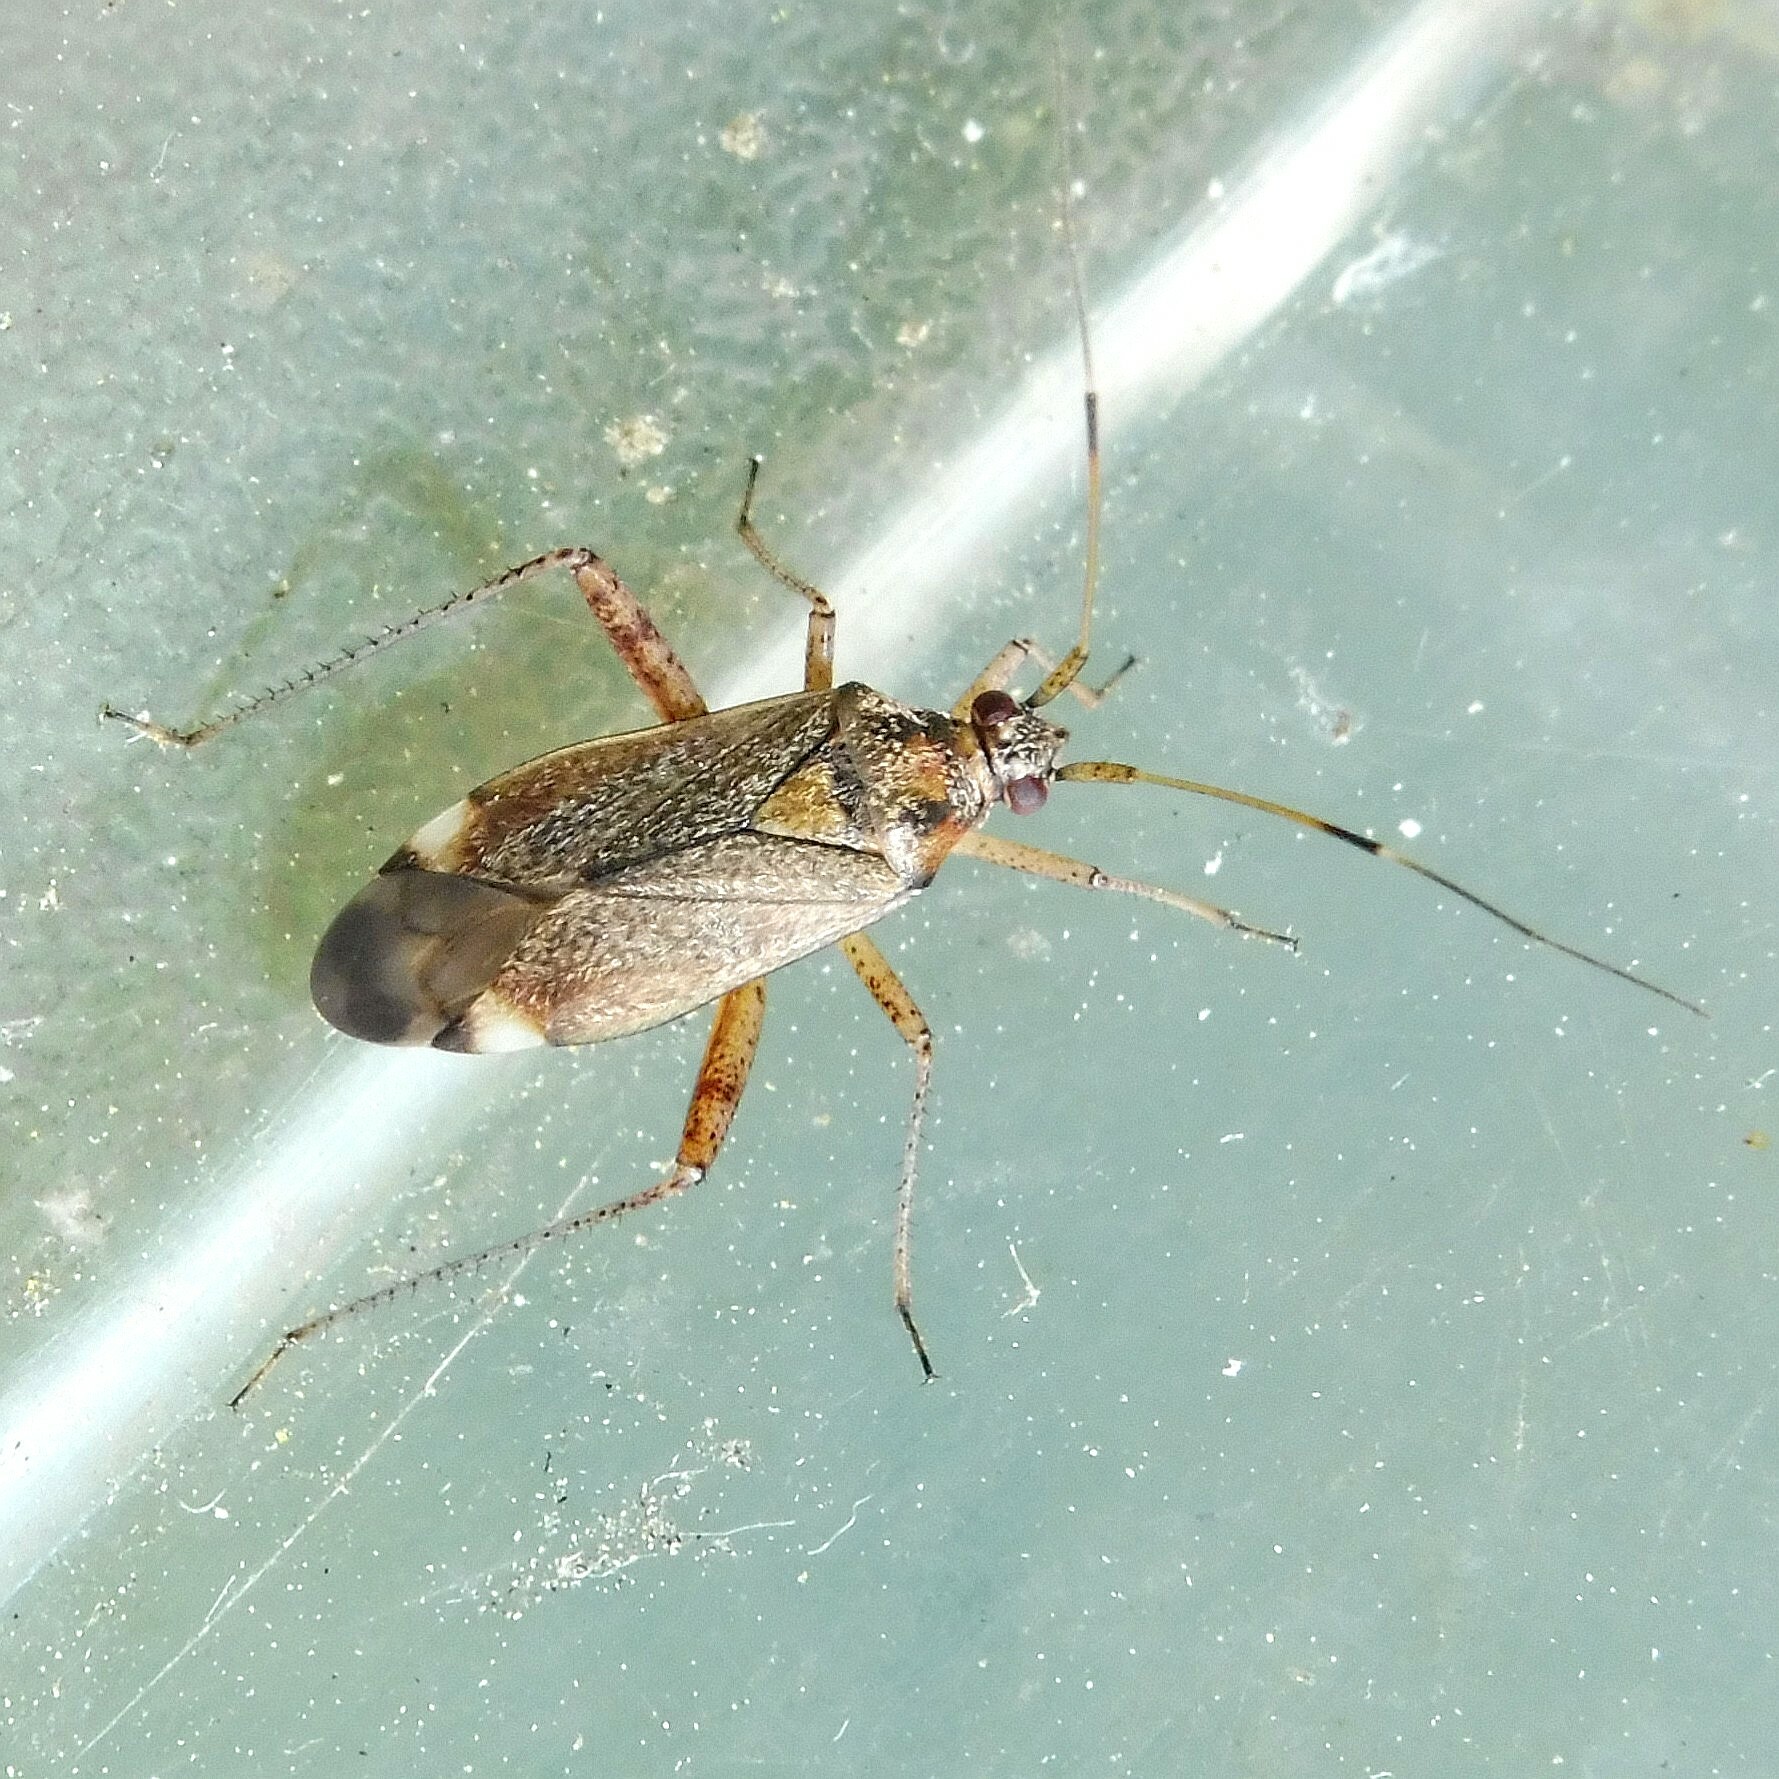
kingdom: Animalia
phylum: Arthropoda
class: Insecta
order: Hemiptera
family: Miridae
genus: Closterotomus
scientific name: Closterotomus fulvomaculatus
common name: Spotted plant bug
